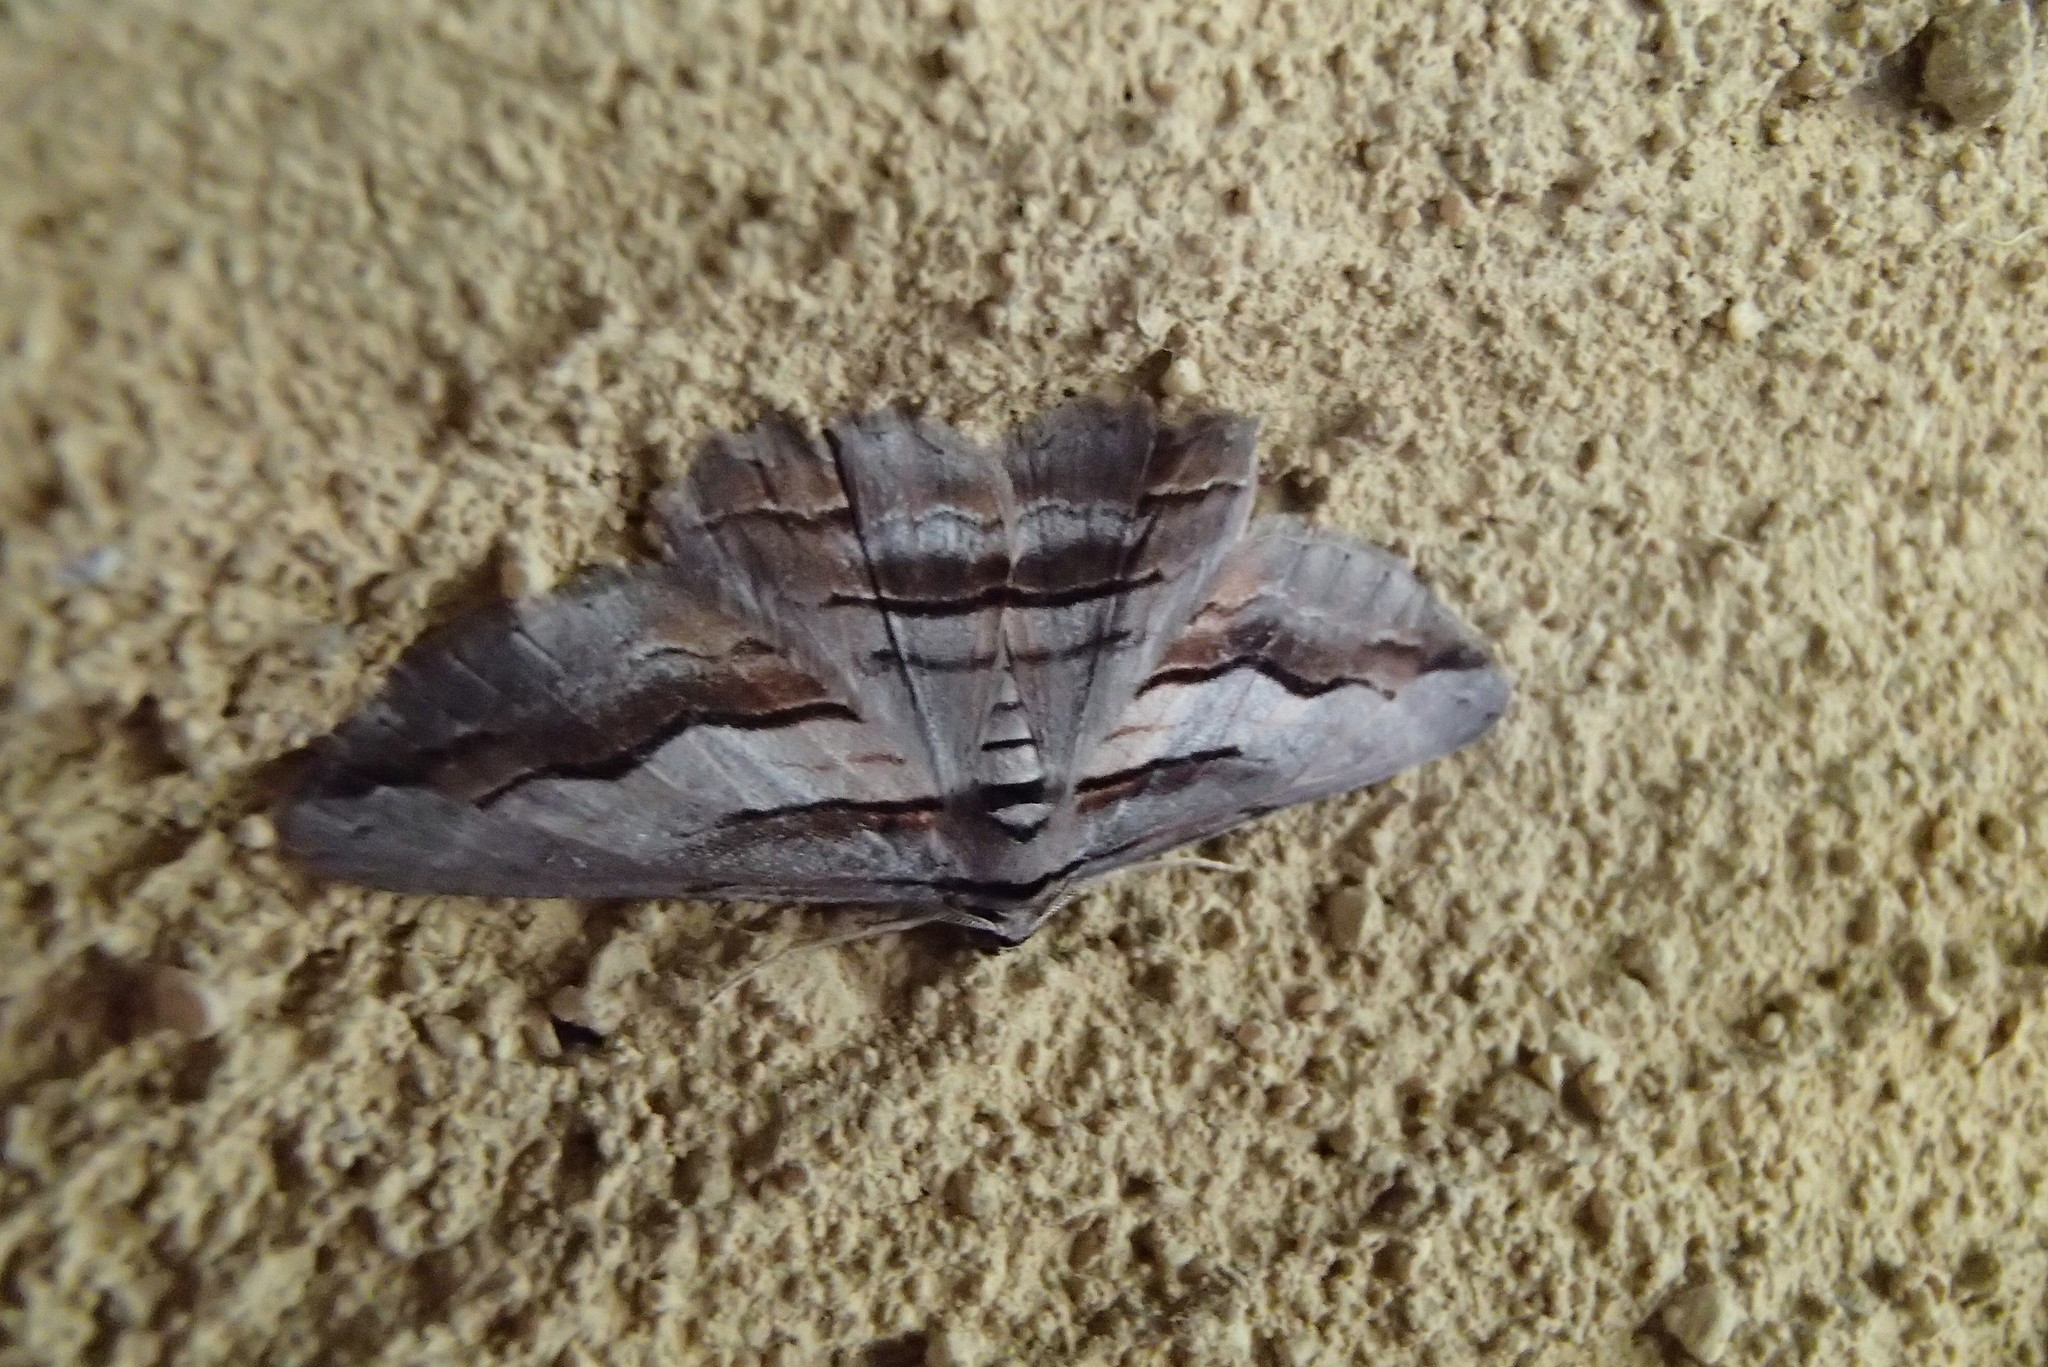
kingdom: Animalia
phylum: Arthropoda
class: Insecta
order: Lepidoptera
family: Geometridae
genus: Syneora
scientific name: Syneora silicaria
